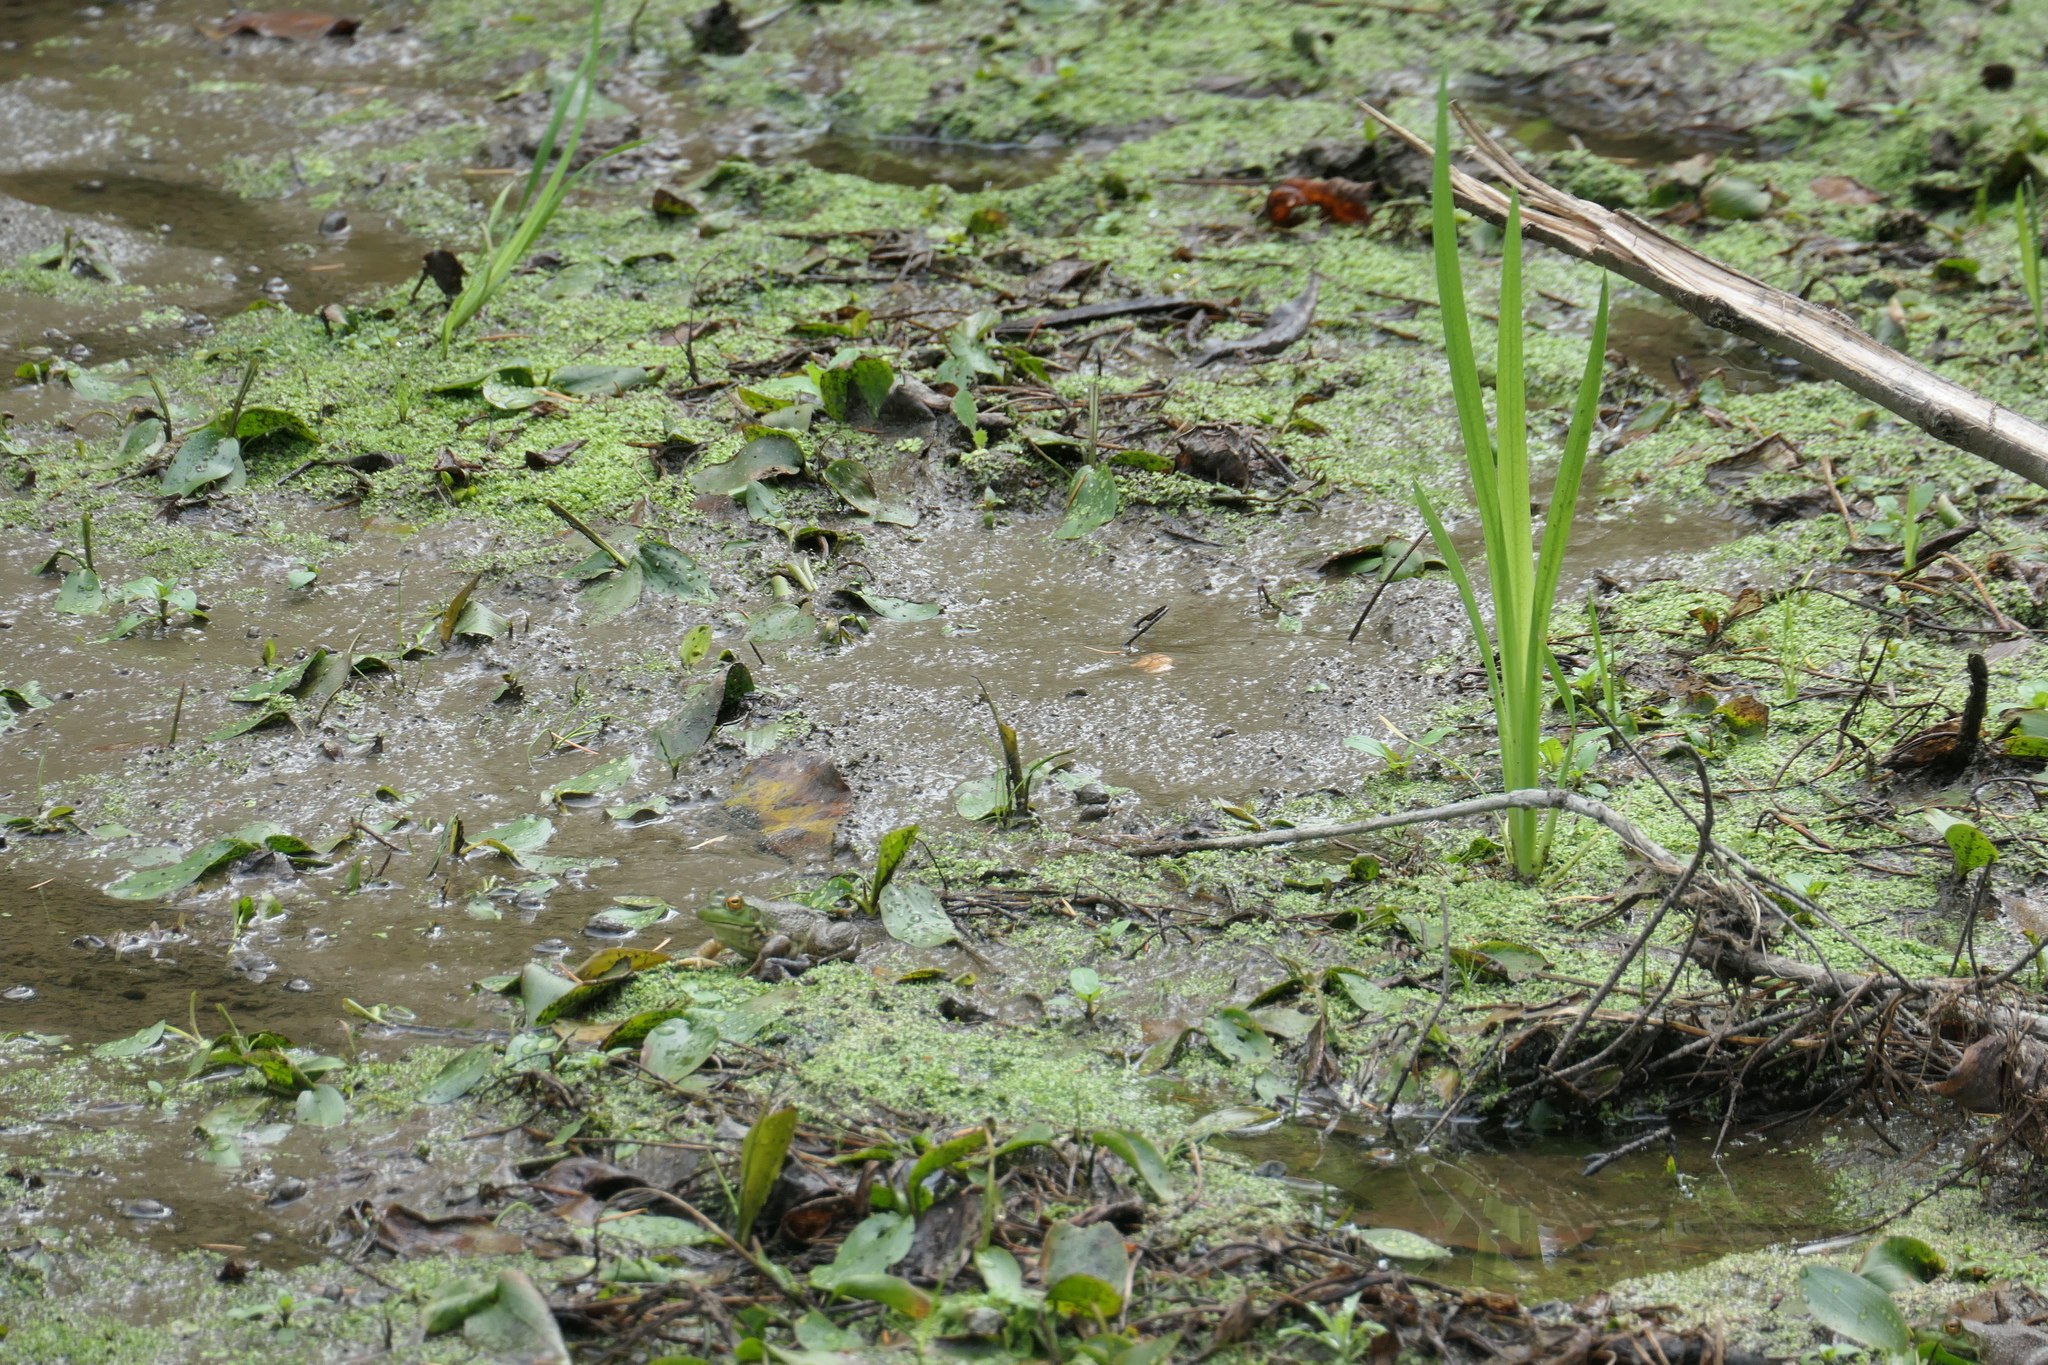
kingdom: Animalia
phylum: Chordata
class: Amphibia
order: Anura
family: Ranidae
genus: Lithobates
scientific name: Lithobates catesbeianus
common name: American bullfrog
